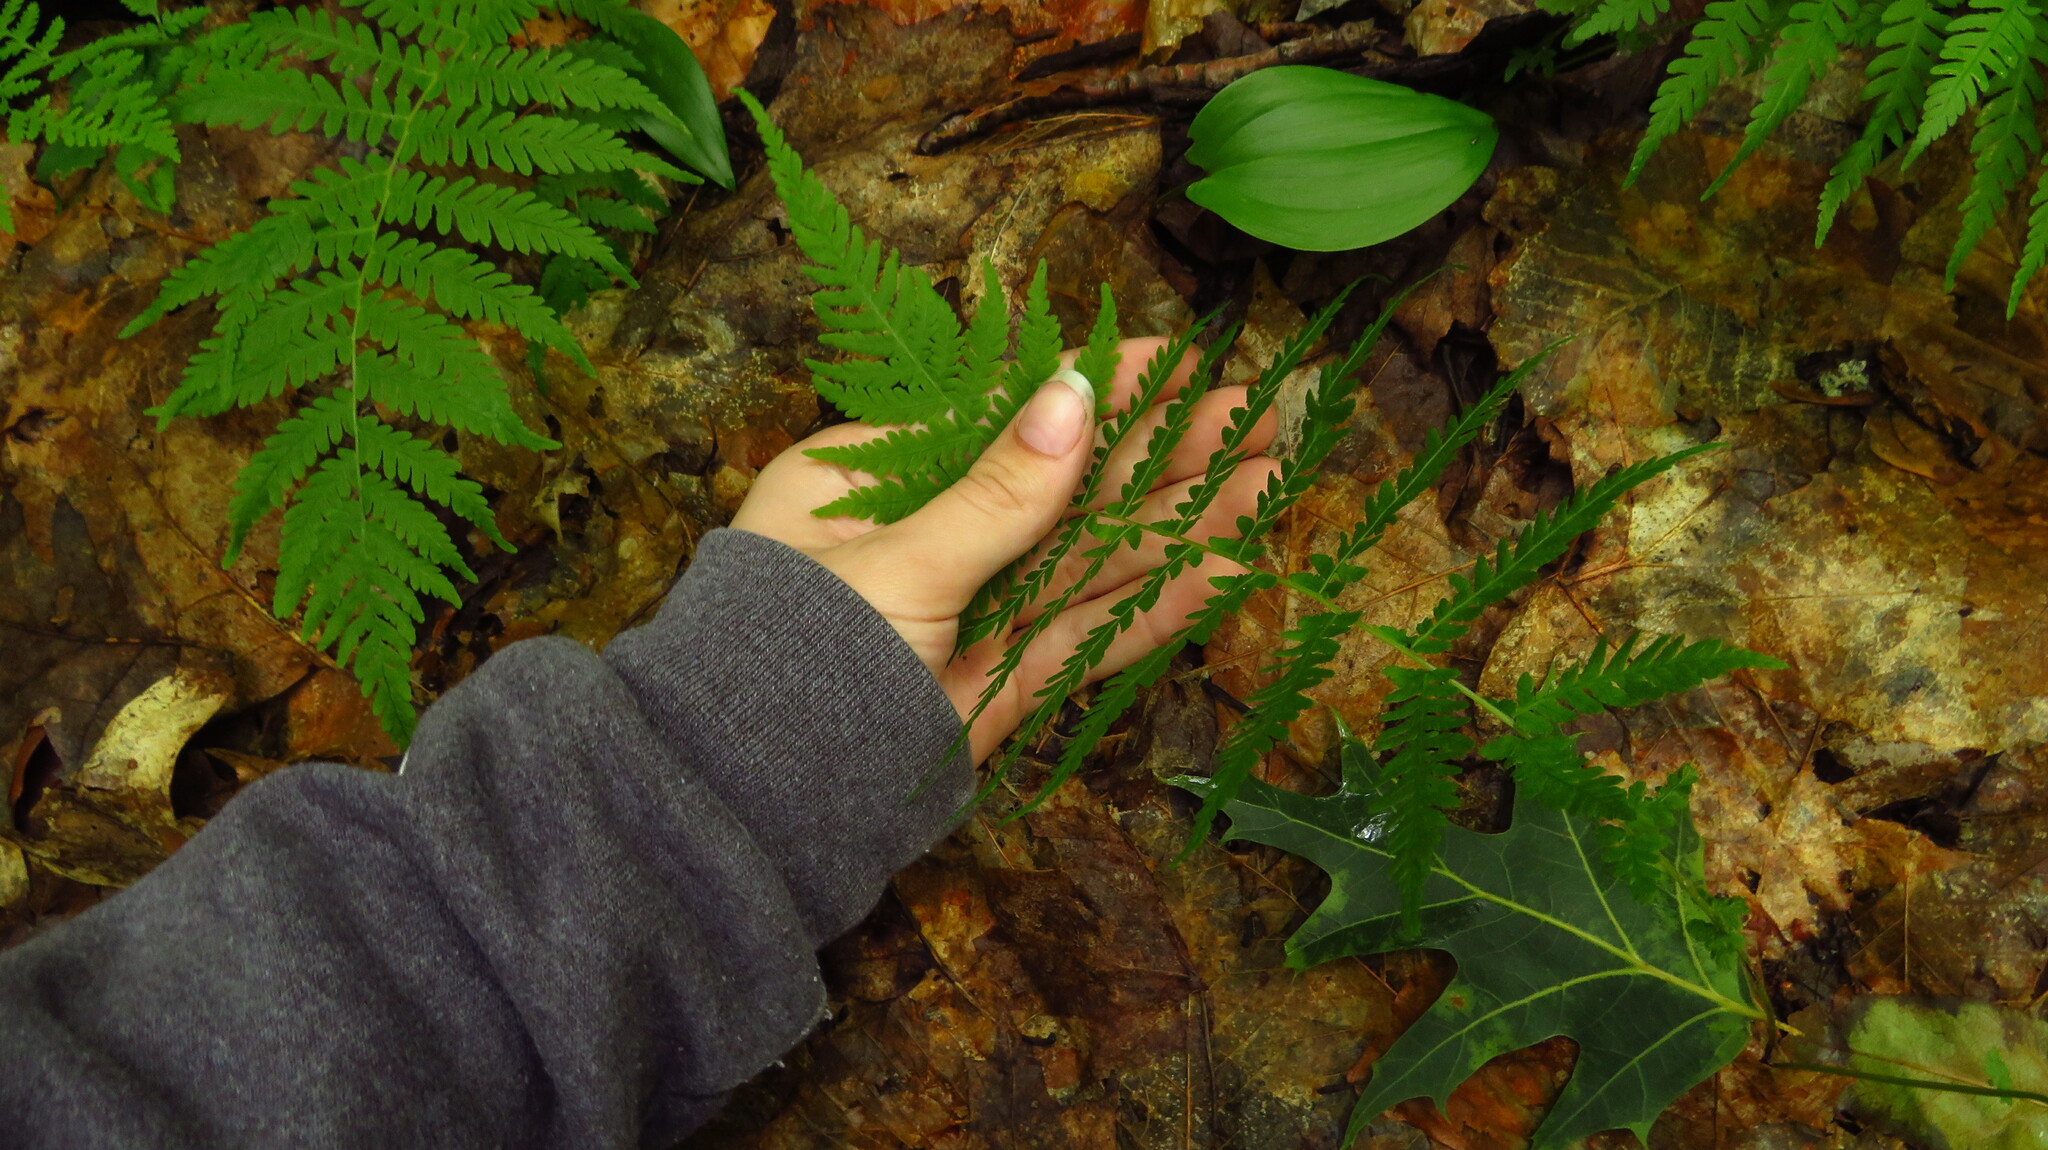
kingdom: Plantae
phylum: Tracheophyta
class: Polypodiopsida
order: Polypodiales
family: Thelypteridaceae
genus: Amauropelta
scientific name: Amauropelta noveboracensis
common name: New york fern
